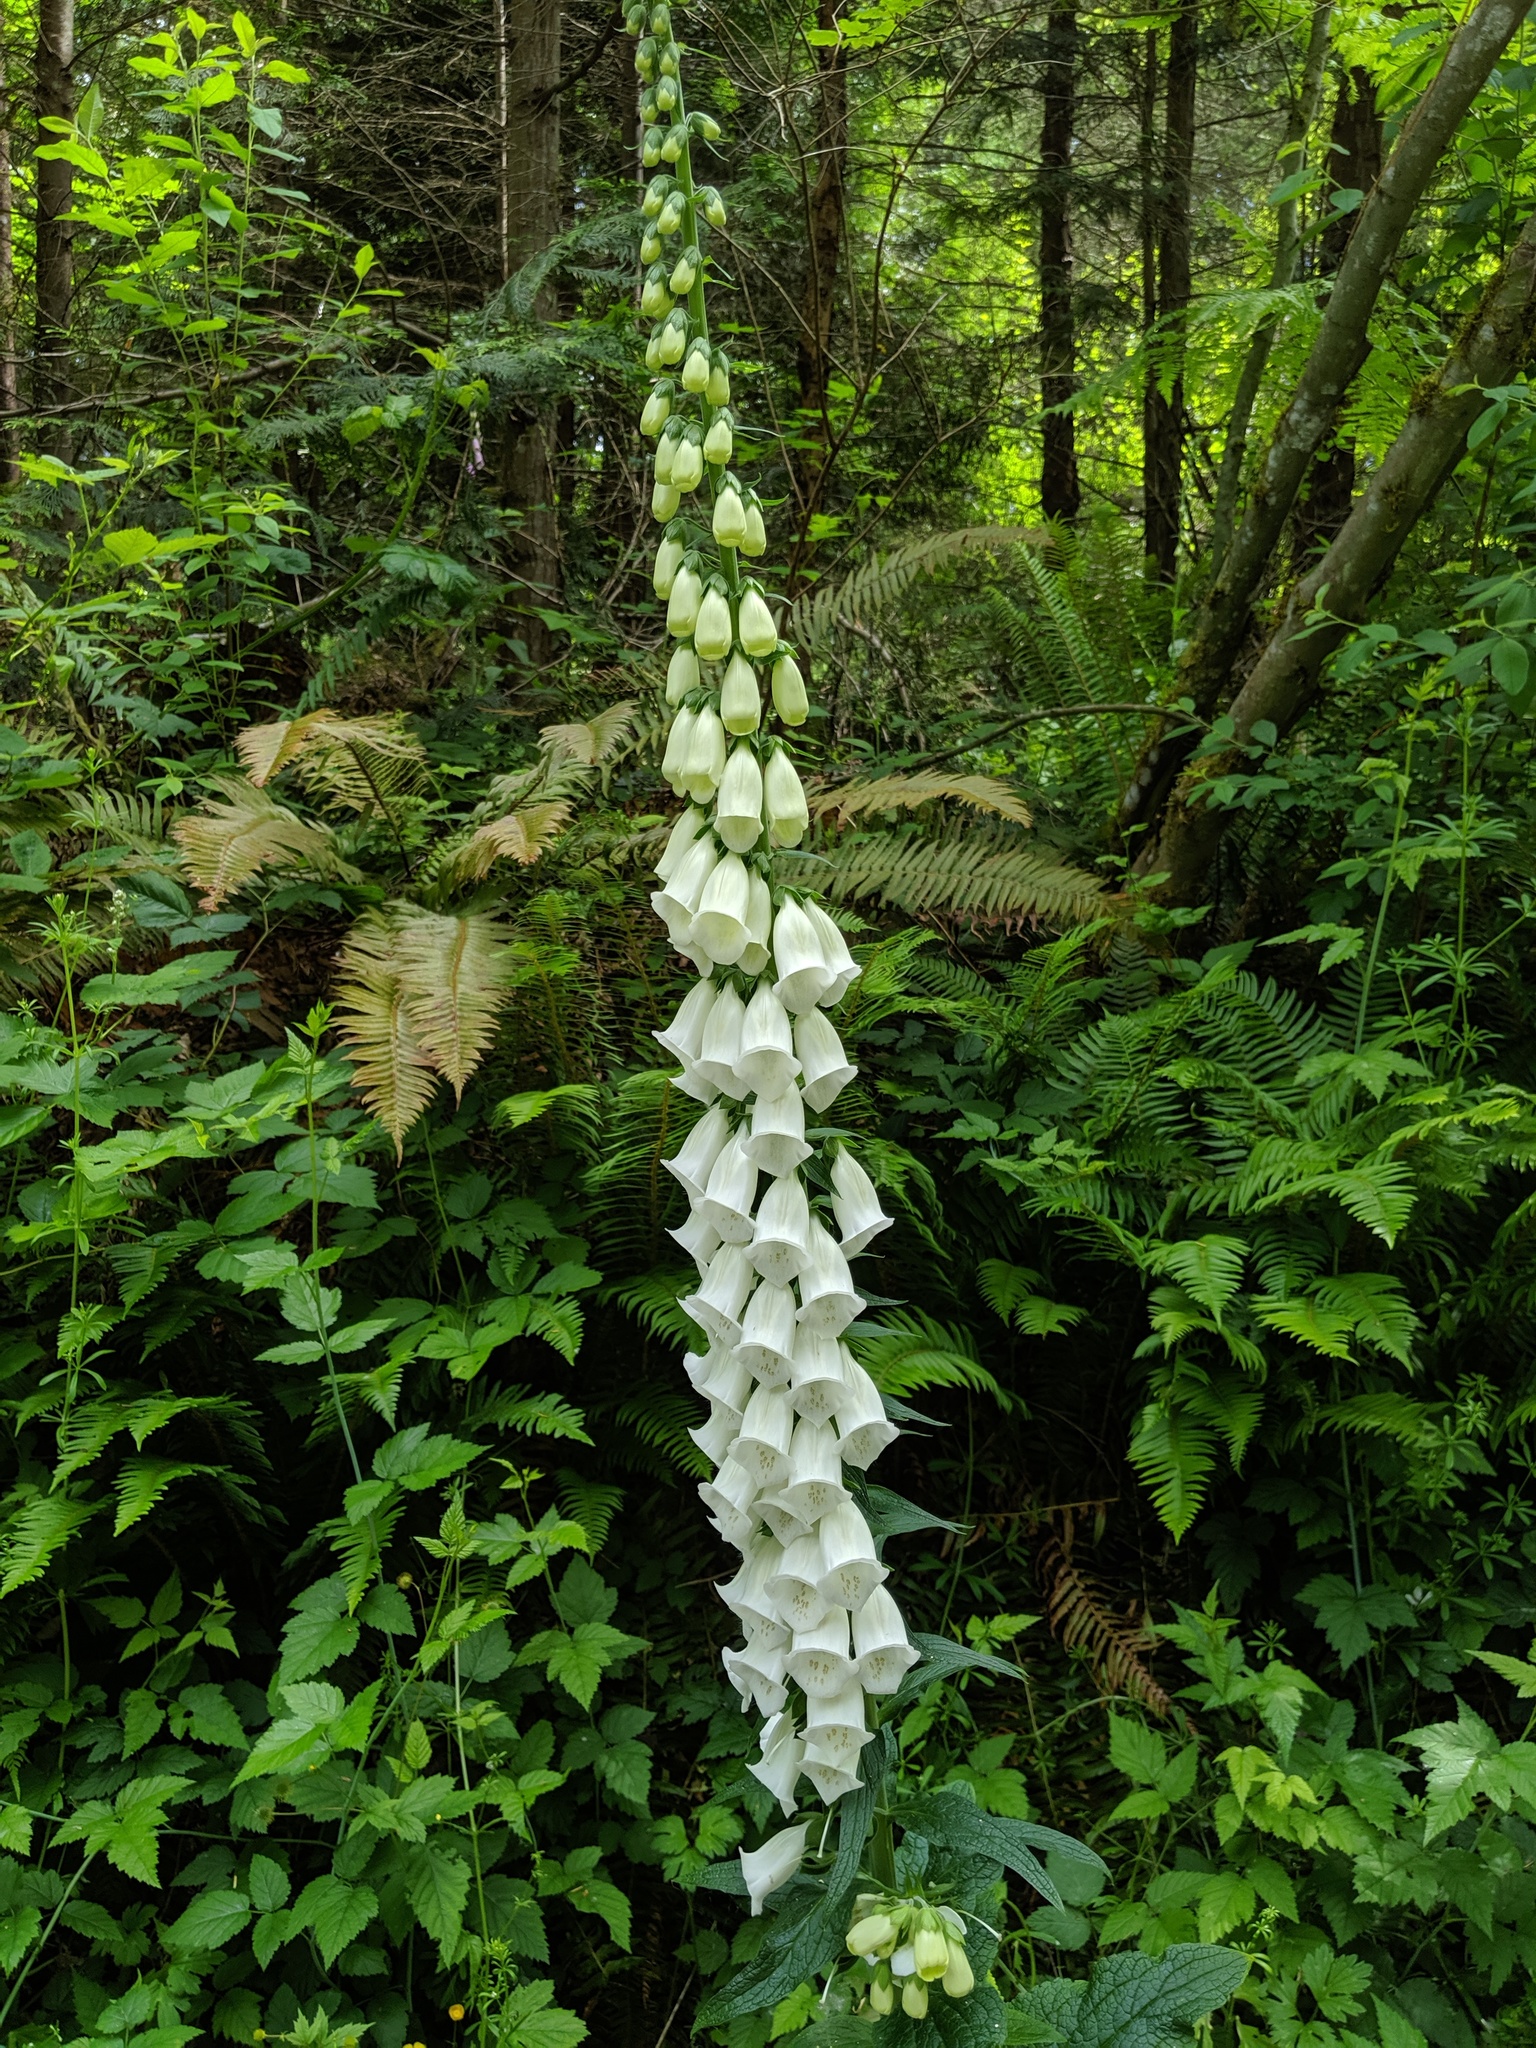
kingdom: Plantae
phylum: Tracheophyta
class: Magnoliopsida
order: Lamiales
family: Plantaginaceae
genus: Digitalis
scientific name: Digitalis purpurea
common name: Foxglove
